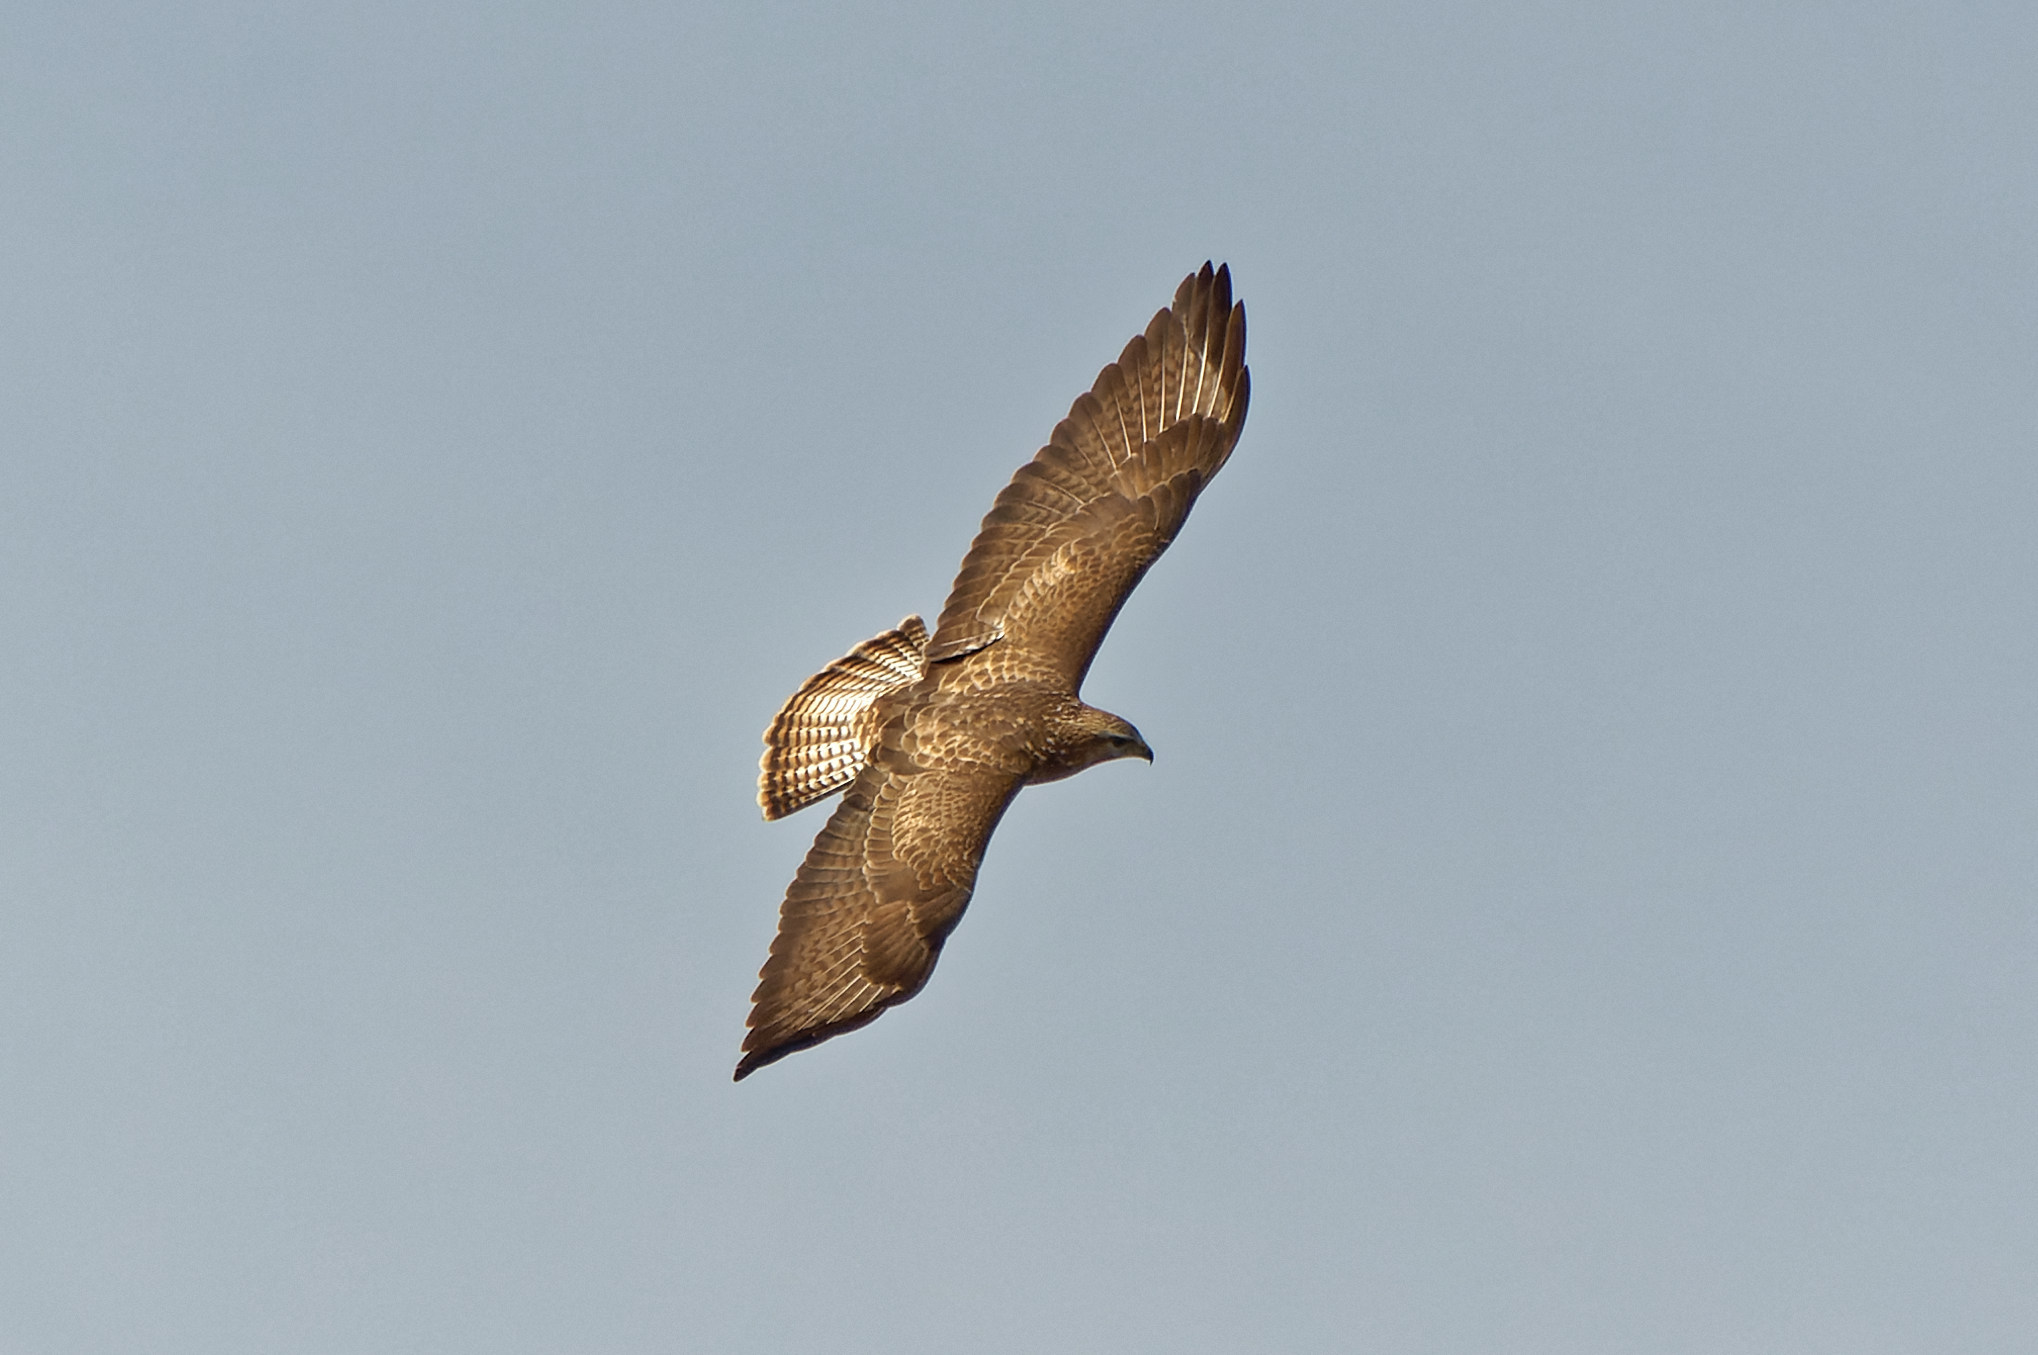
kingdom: Animalia
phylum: Chordata
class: Aves
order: Accipitriformes
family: Accipitridae
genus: Buteo
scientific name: Buteo buteo
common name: Common buzzard
